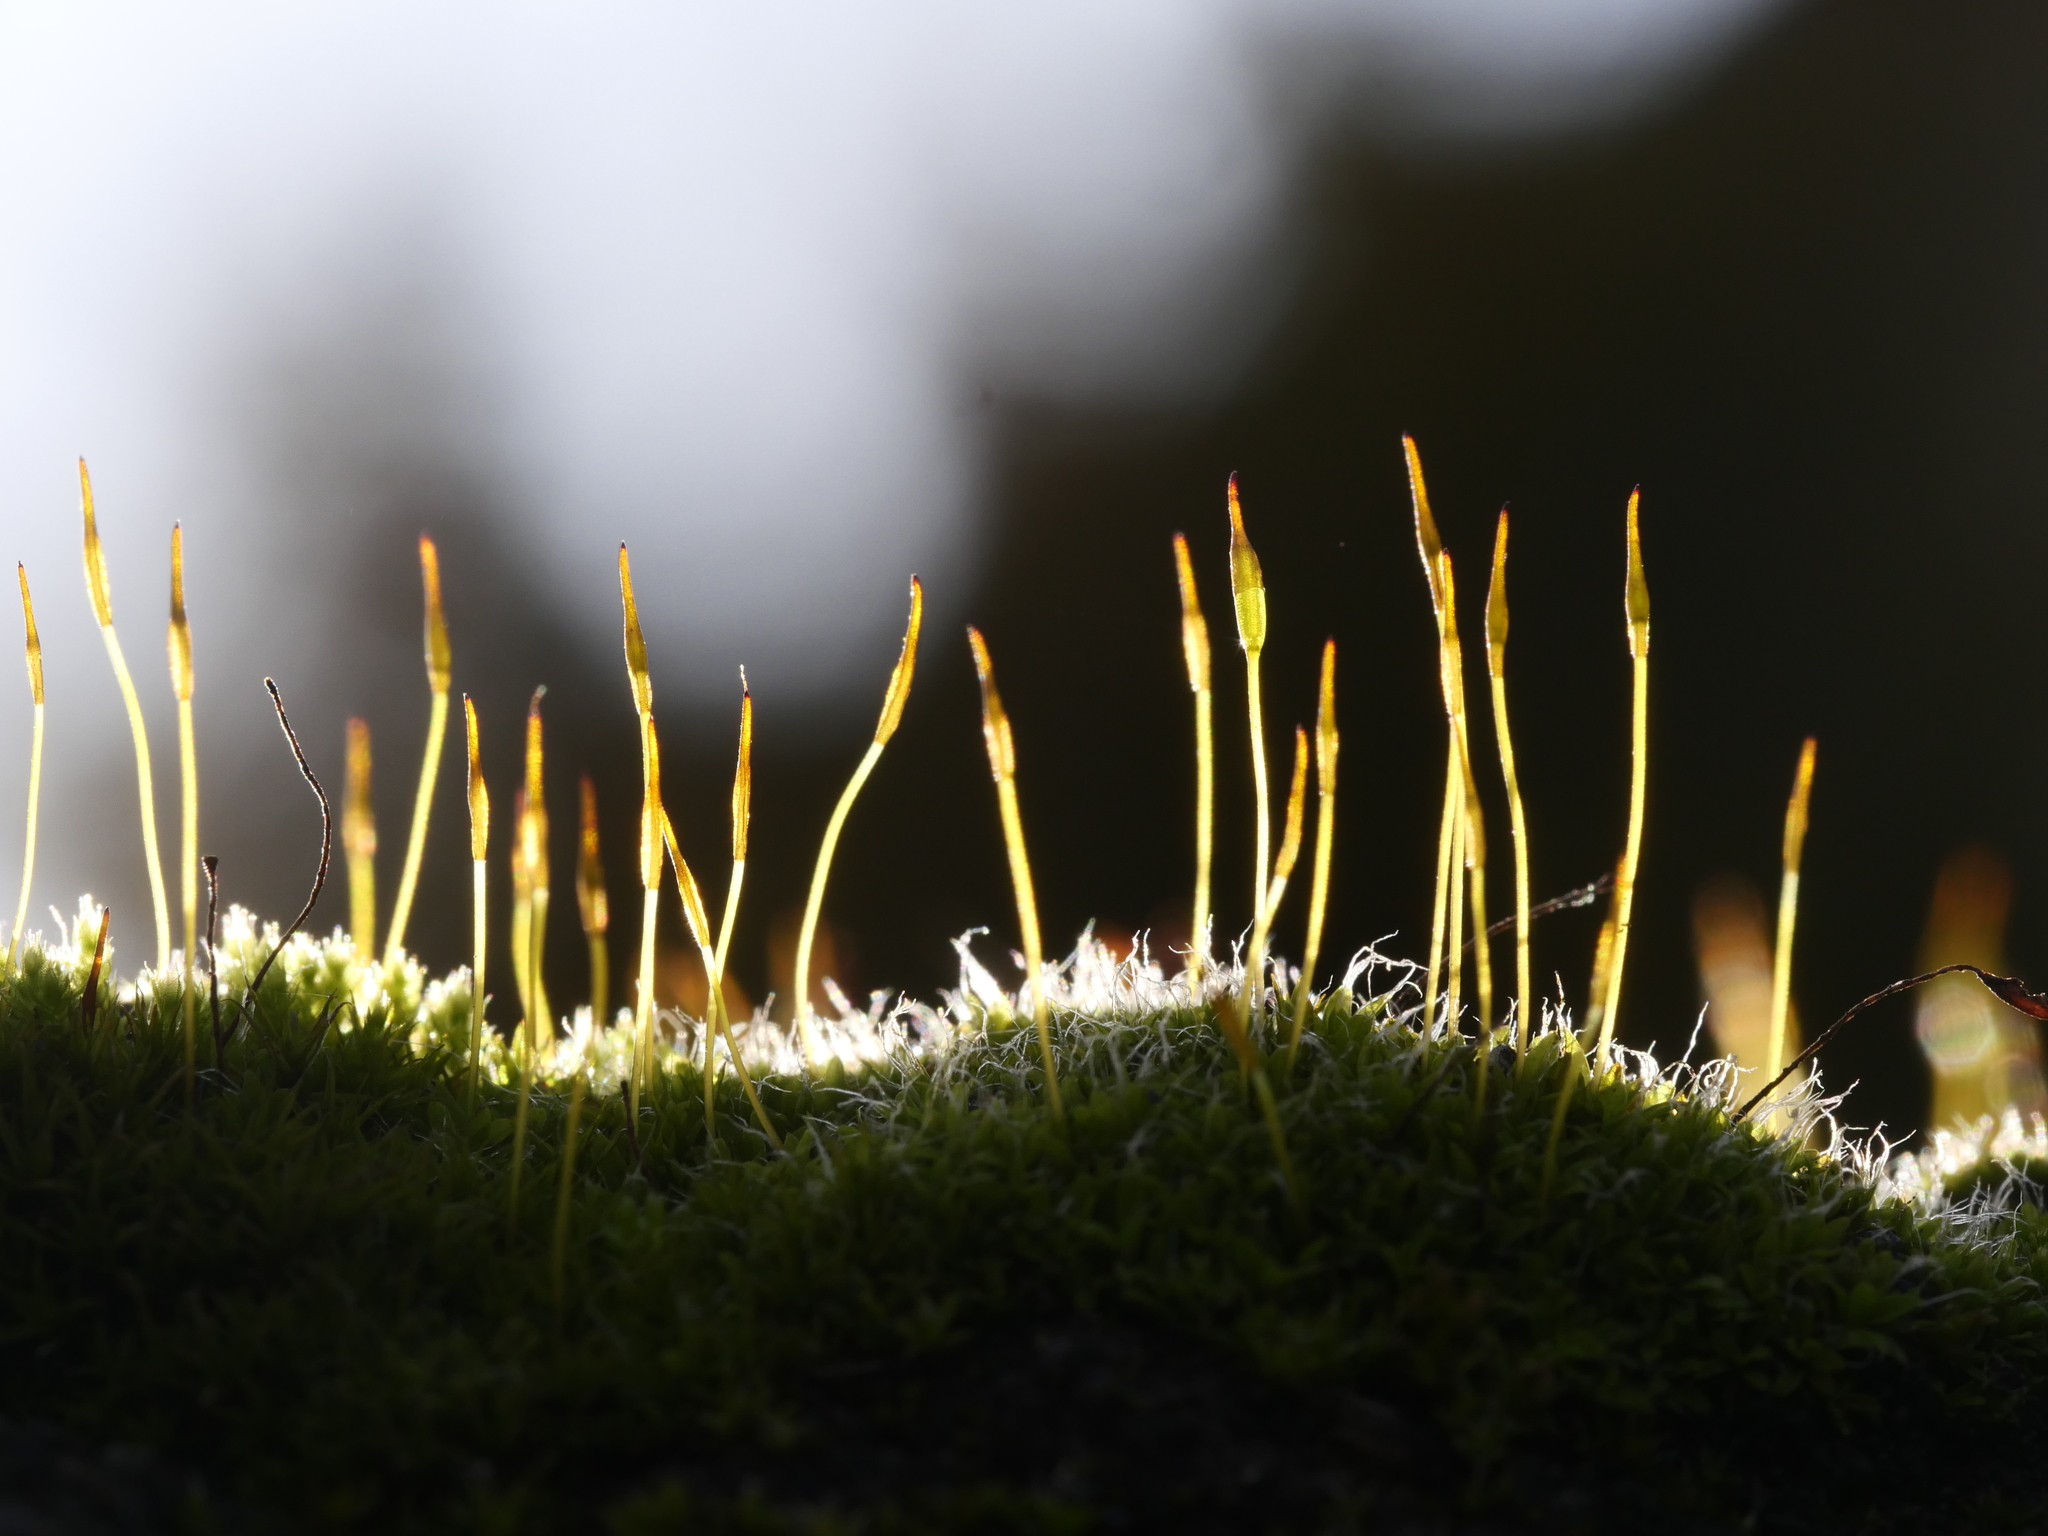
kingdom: Plantae
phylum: Bryophyta
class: Bryopsida
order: Pottiales
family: Pottiaceae
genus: Tortula
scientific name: Tortula muralis
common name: Wall screw-moss
